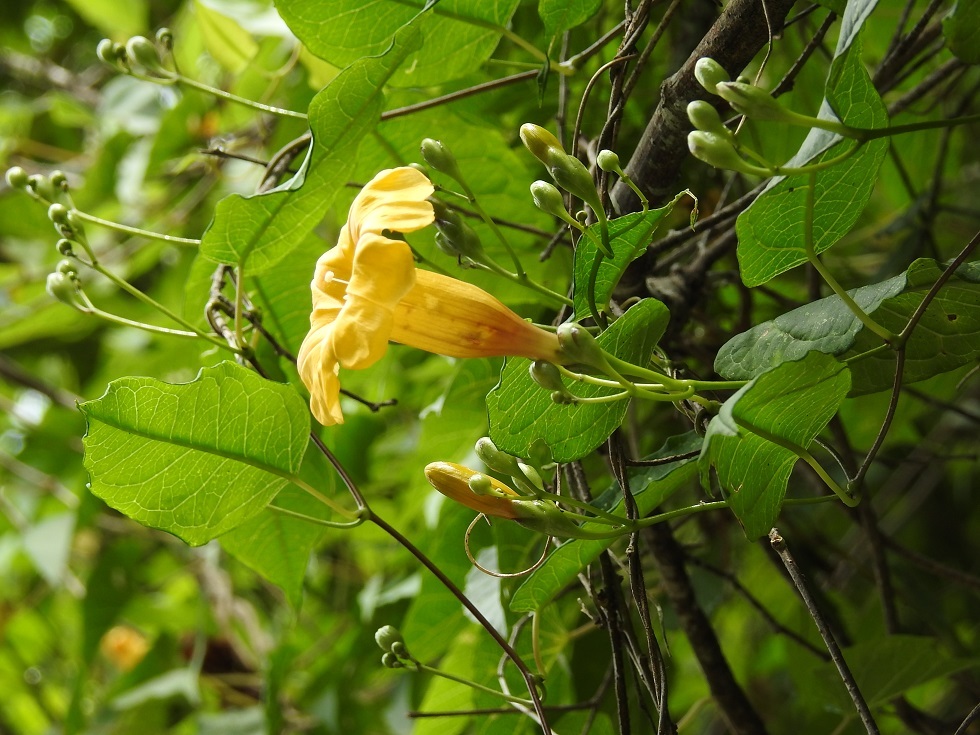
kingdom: Plantae
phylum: Tracheophyta
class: Magnoliopsida
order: Solanales
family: Convolvulaceae
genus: Ipomoea
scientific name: Ipomoea aurantiaca
